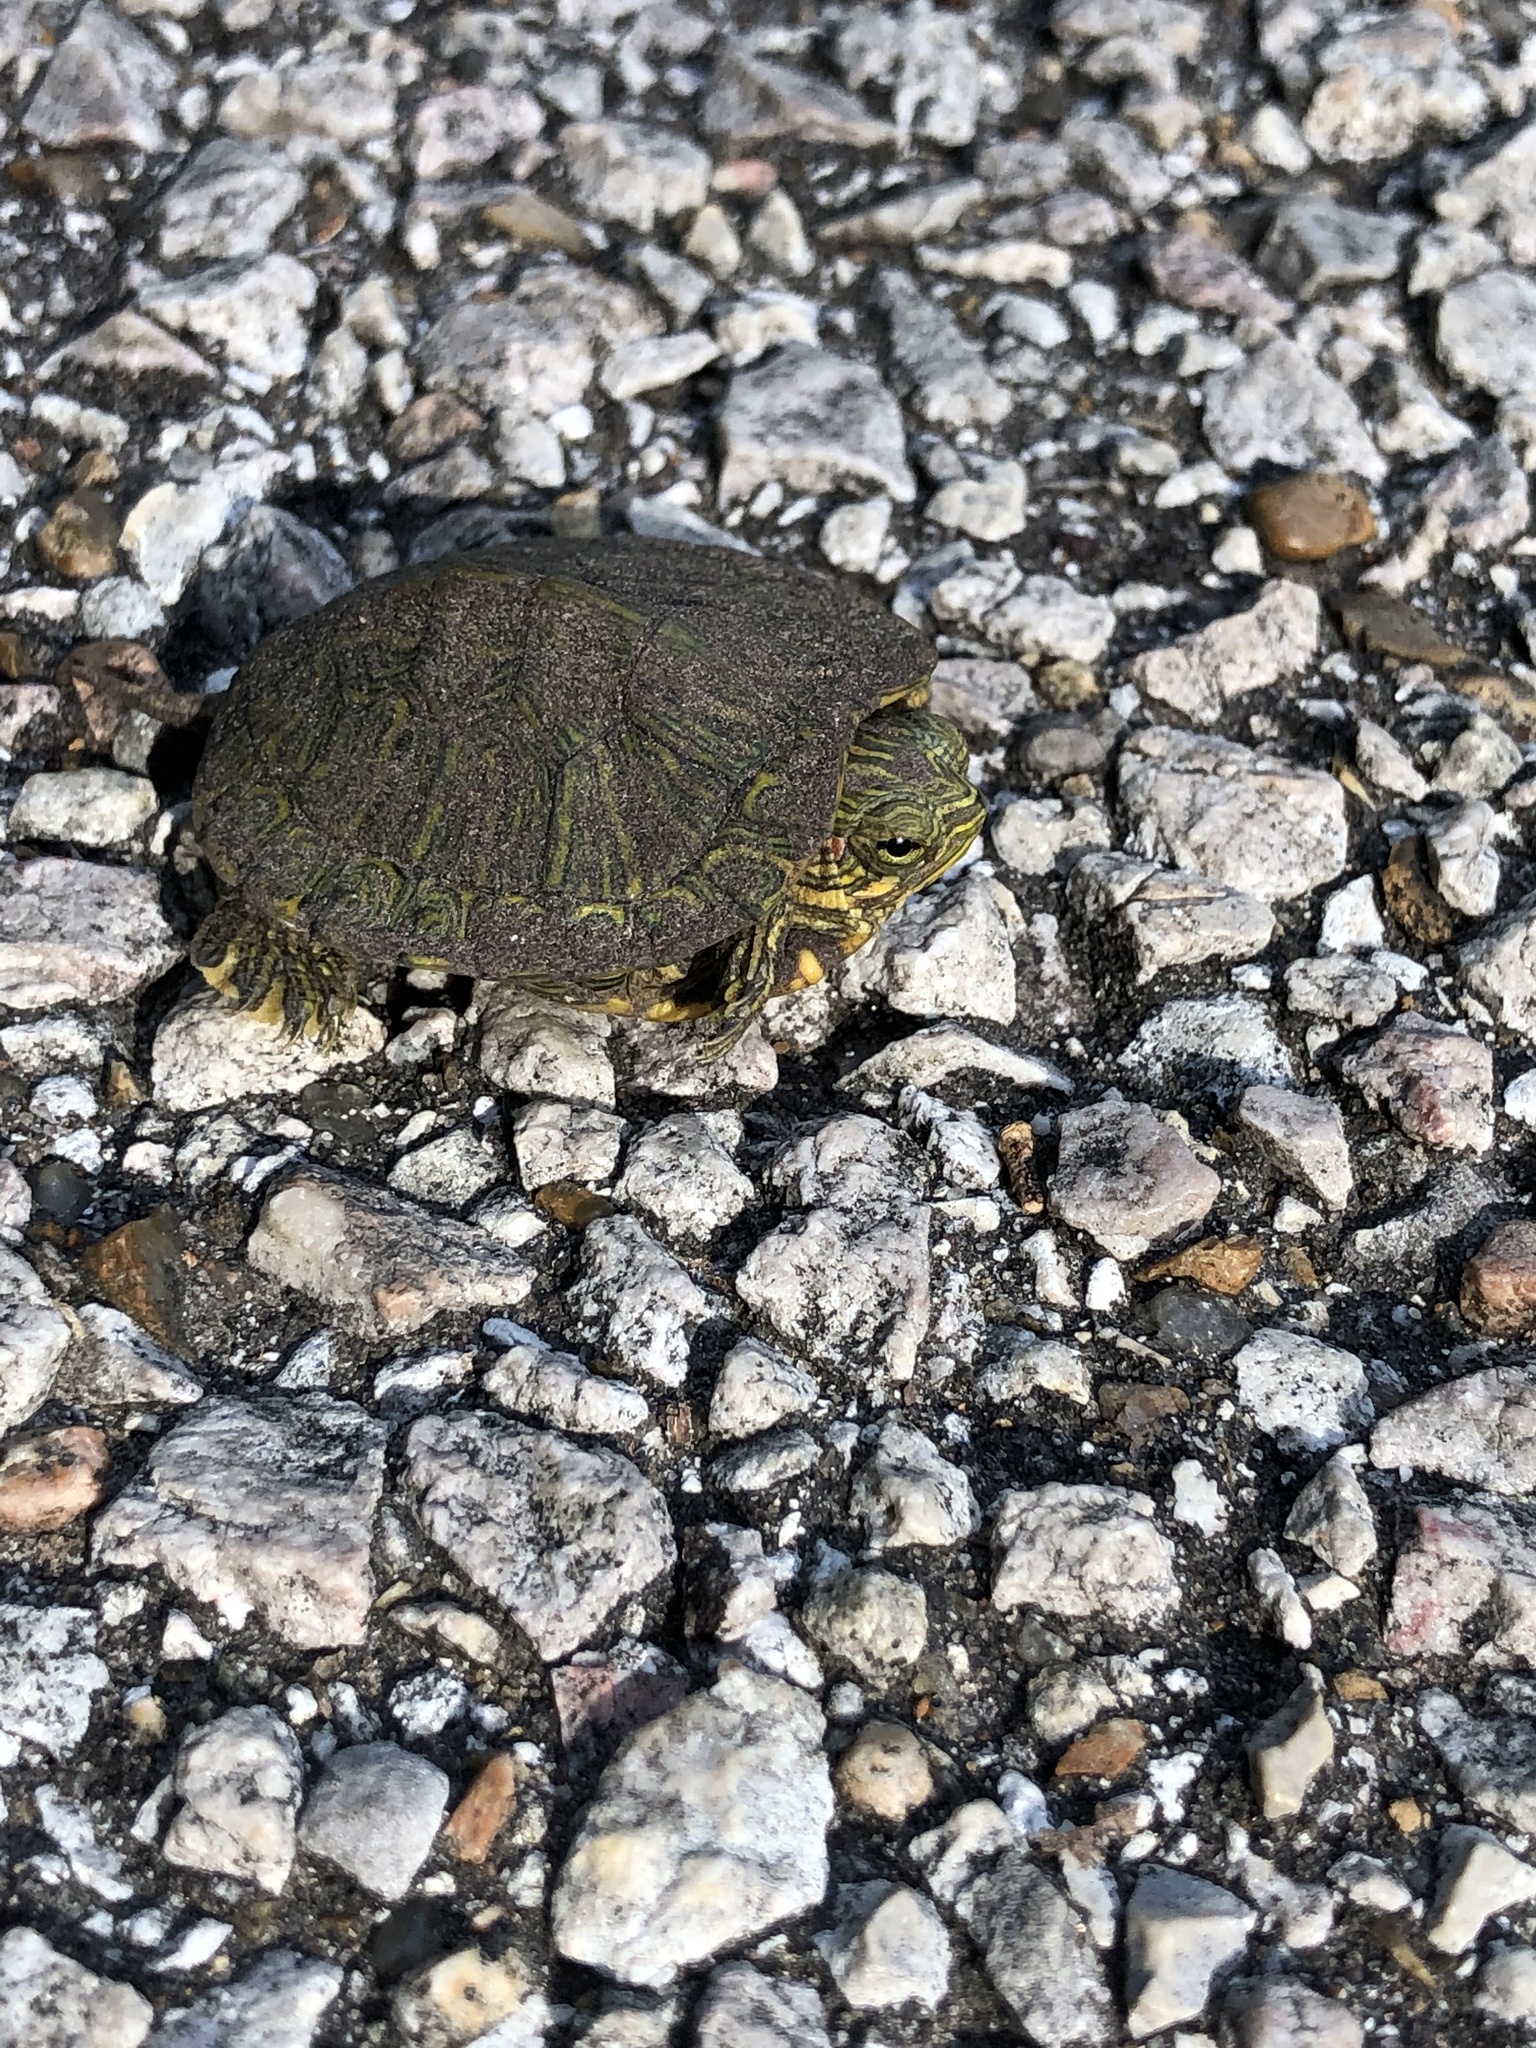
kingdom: Animalia
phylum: Chordata
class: Testudines
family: Emydidae
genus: Trachemys
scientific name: Trachemys scripta
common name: Slider
